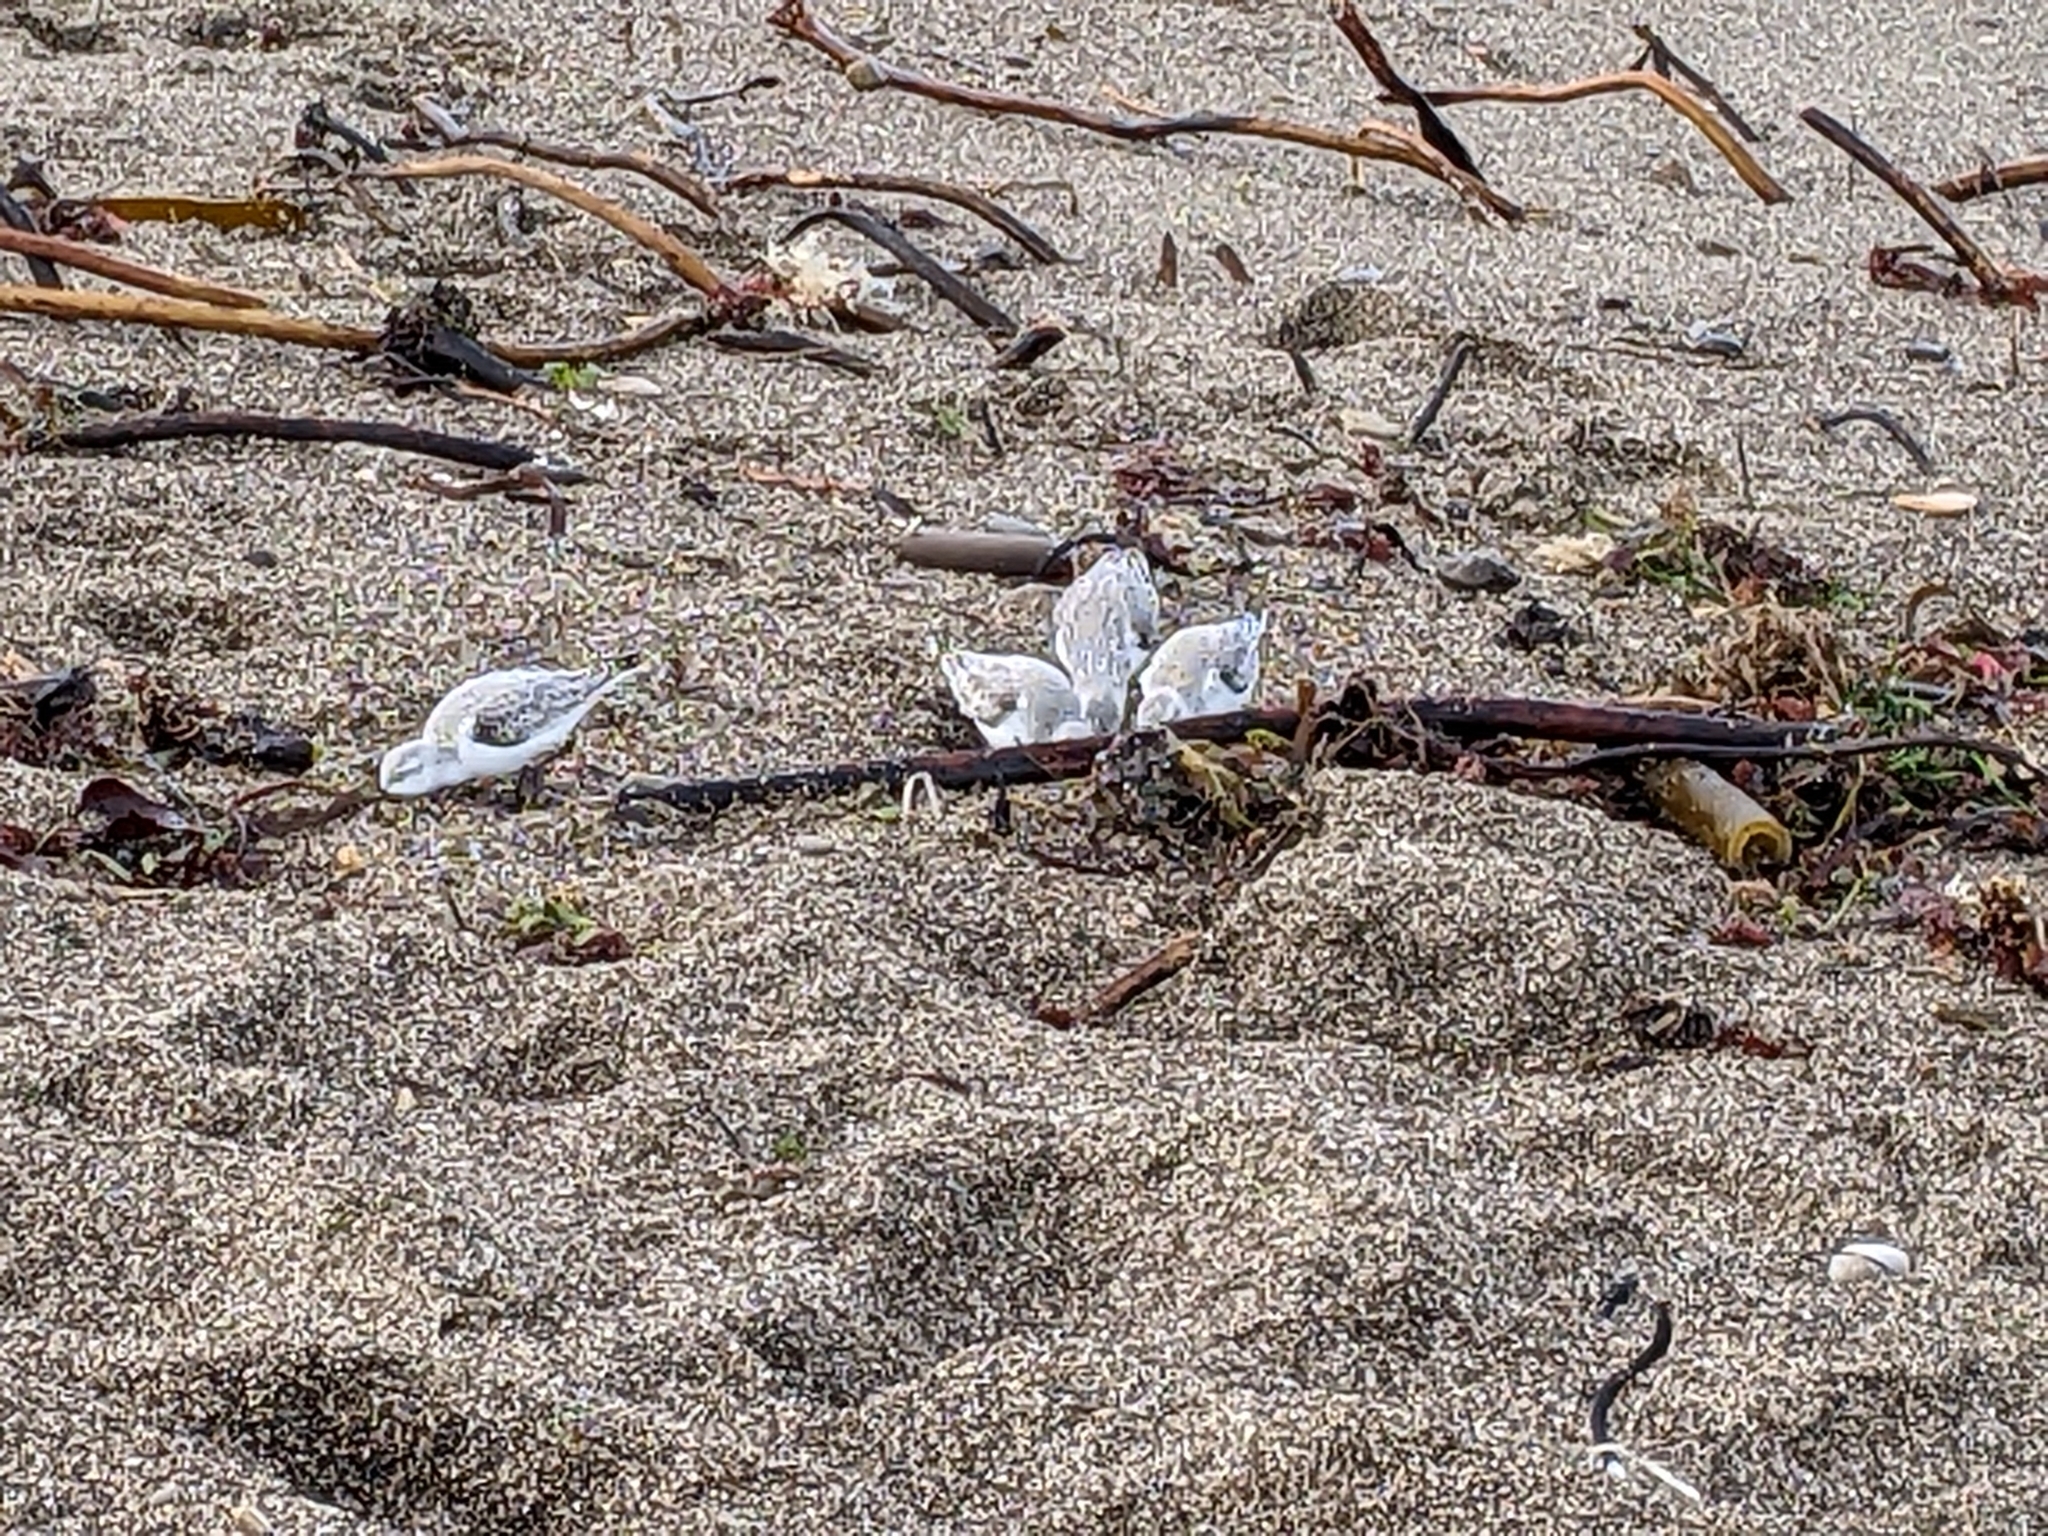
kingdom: Animalia
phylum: Chordata
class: Aves
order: Charadriiformes
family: Scolopacidae
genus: Calidris
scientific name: Calidris alba
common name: Sanderling
